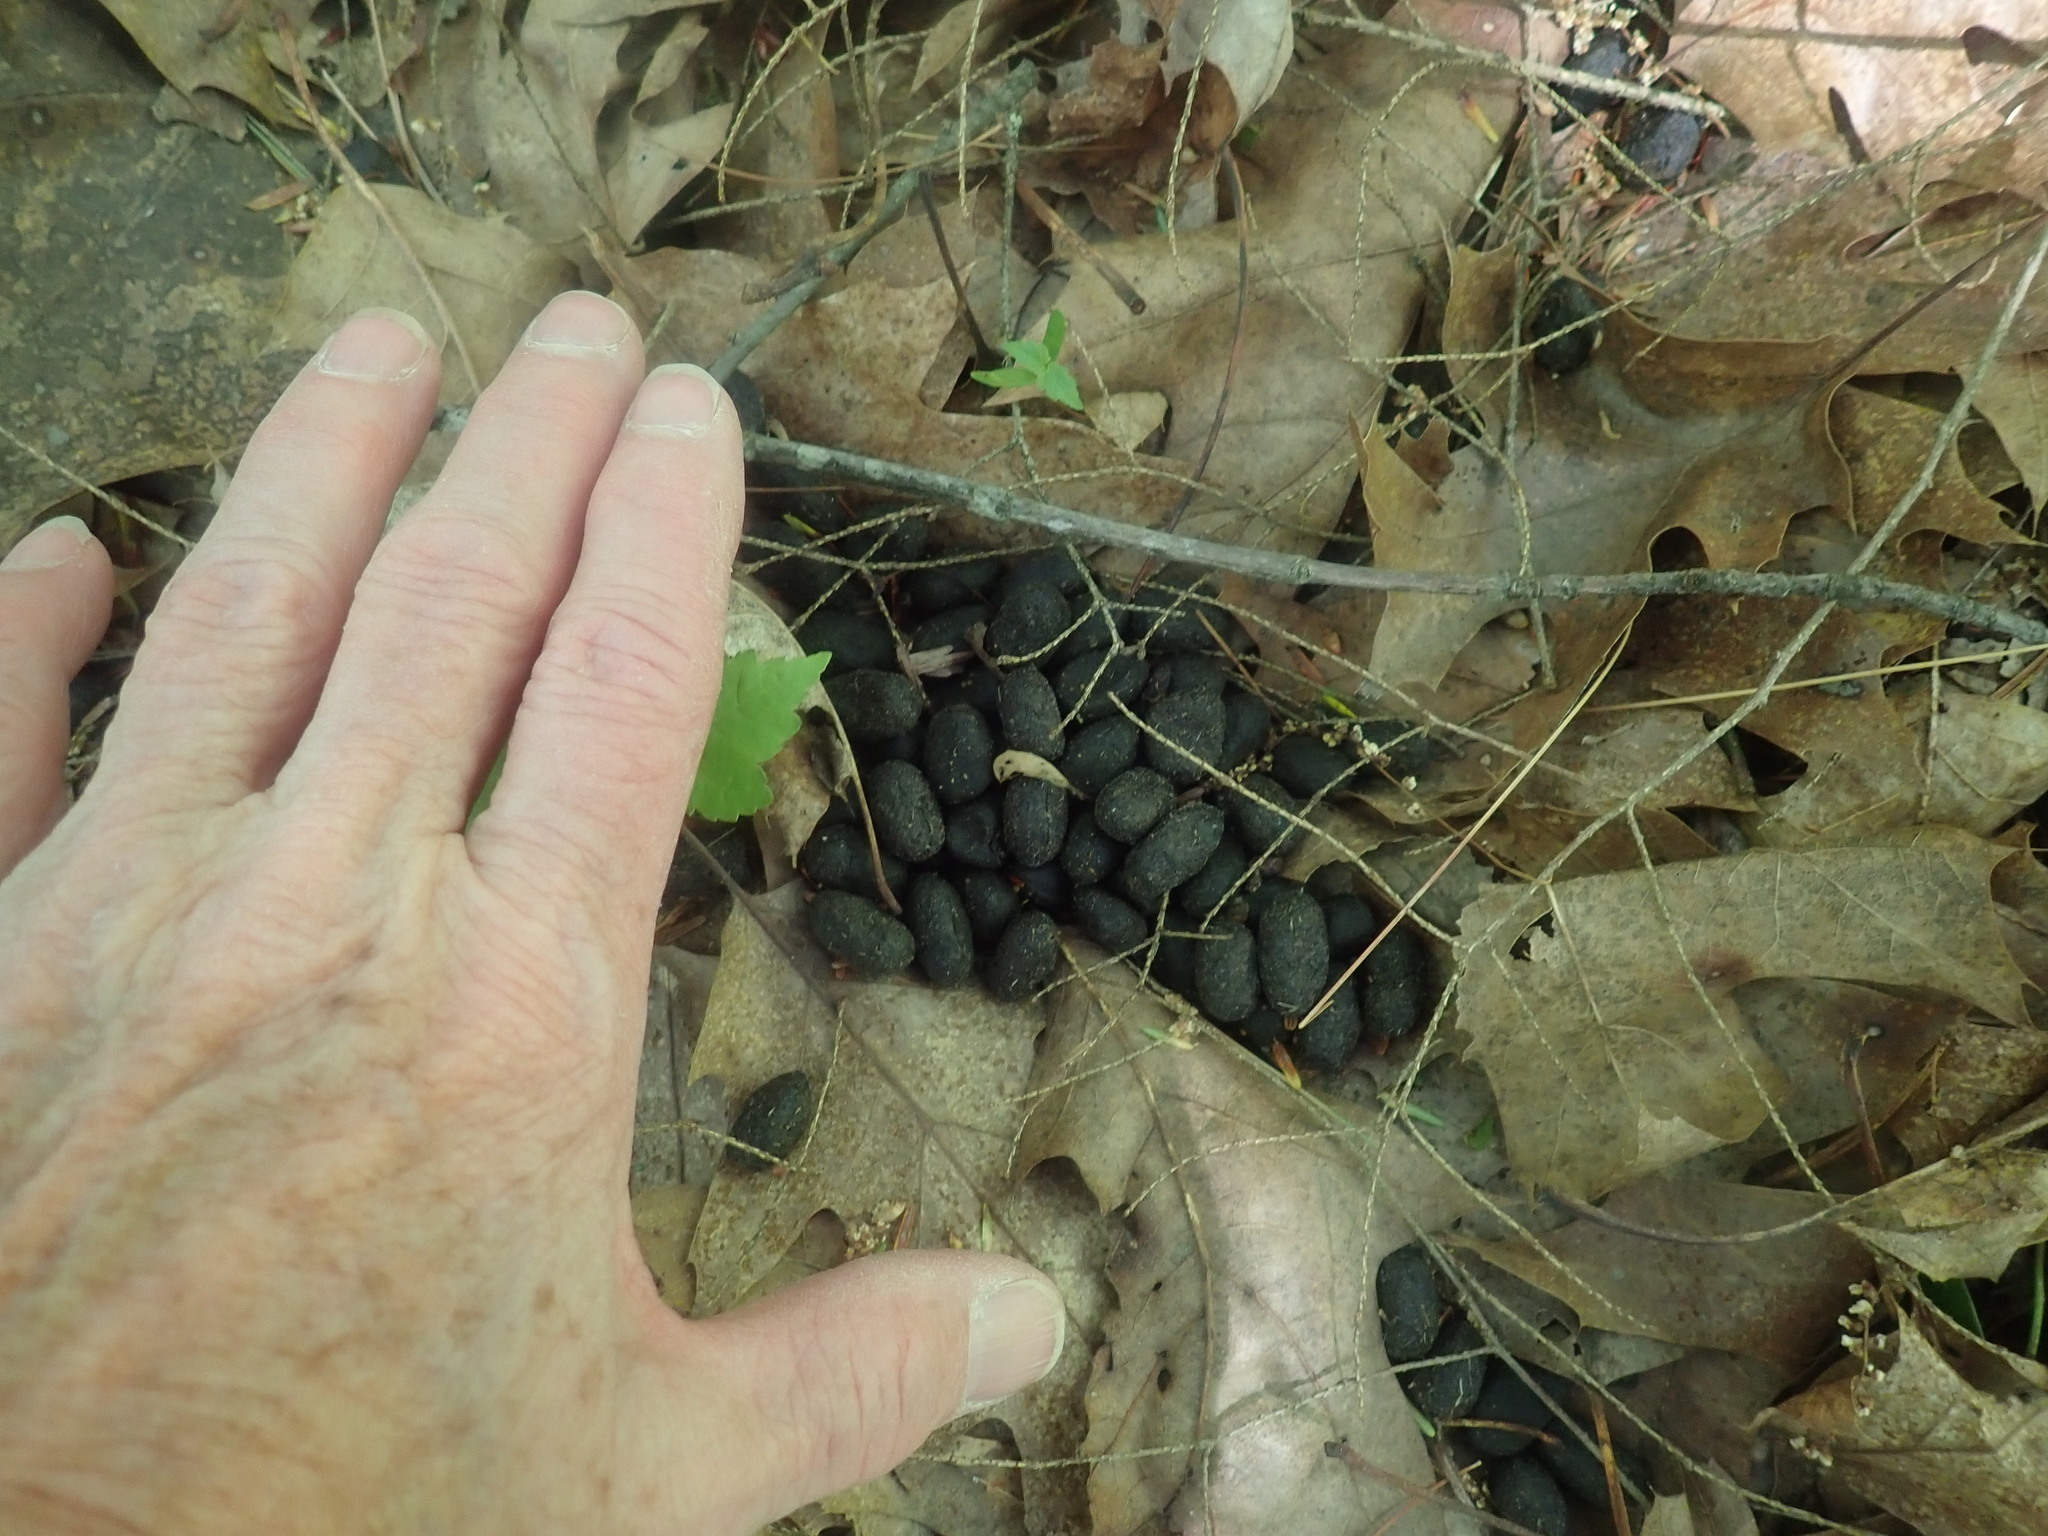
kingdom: Animalia
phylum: Chordata
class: Mammalia
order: Artiodactyla
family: Cervidae
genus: Odocoileus
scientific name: Odocoileus virginianus
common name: White-tailed deer
